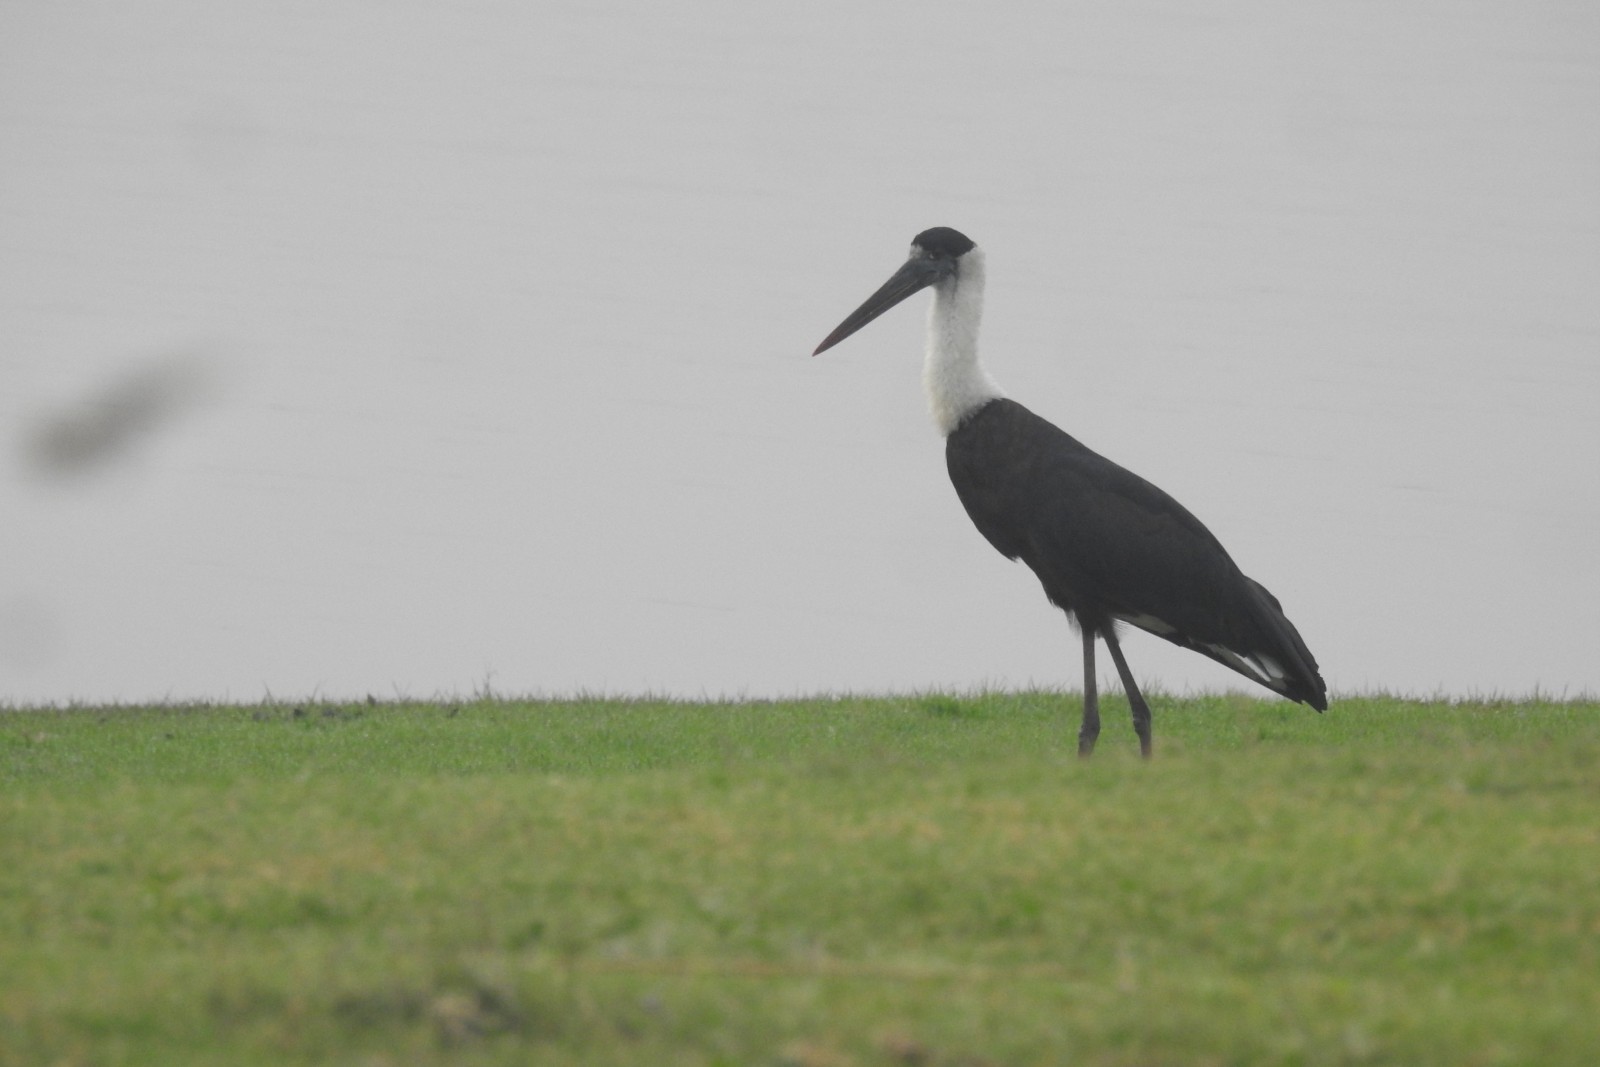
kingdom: Animalia
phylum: Chordata
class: Aves
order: Ciconiiformes
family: Ciconiidae
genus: Ciconia
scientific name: Ciconia episcopus
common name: Woolly-necked stork
